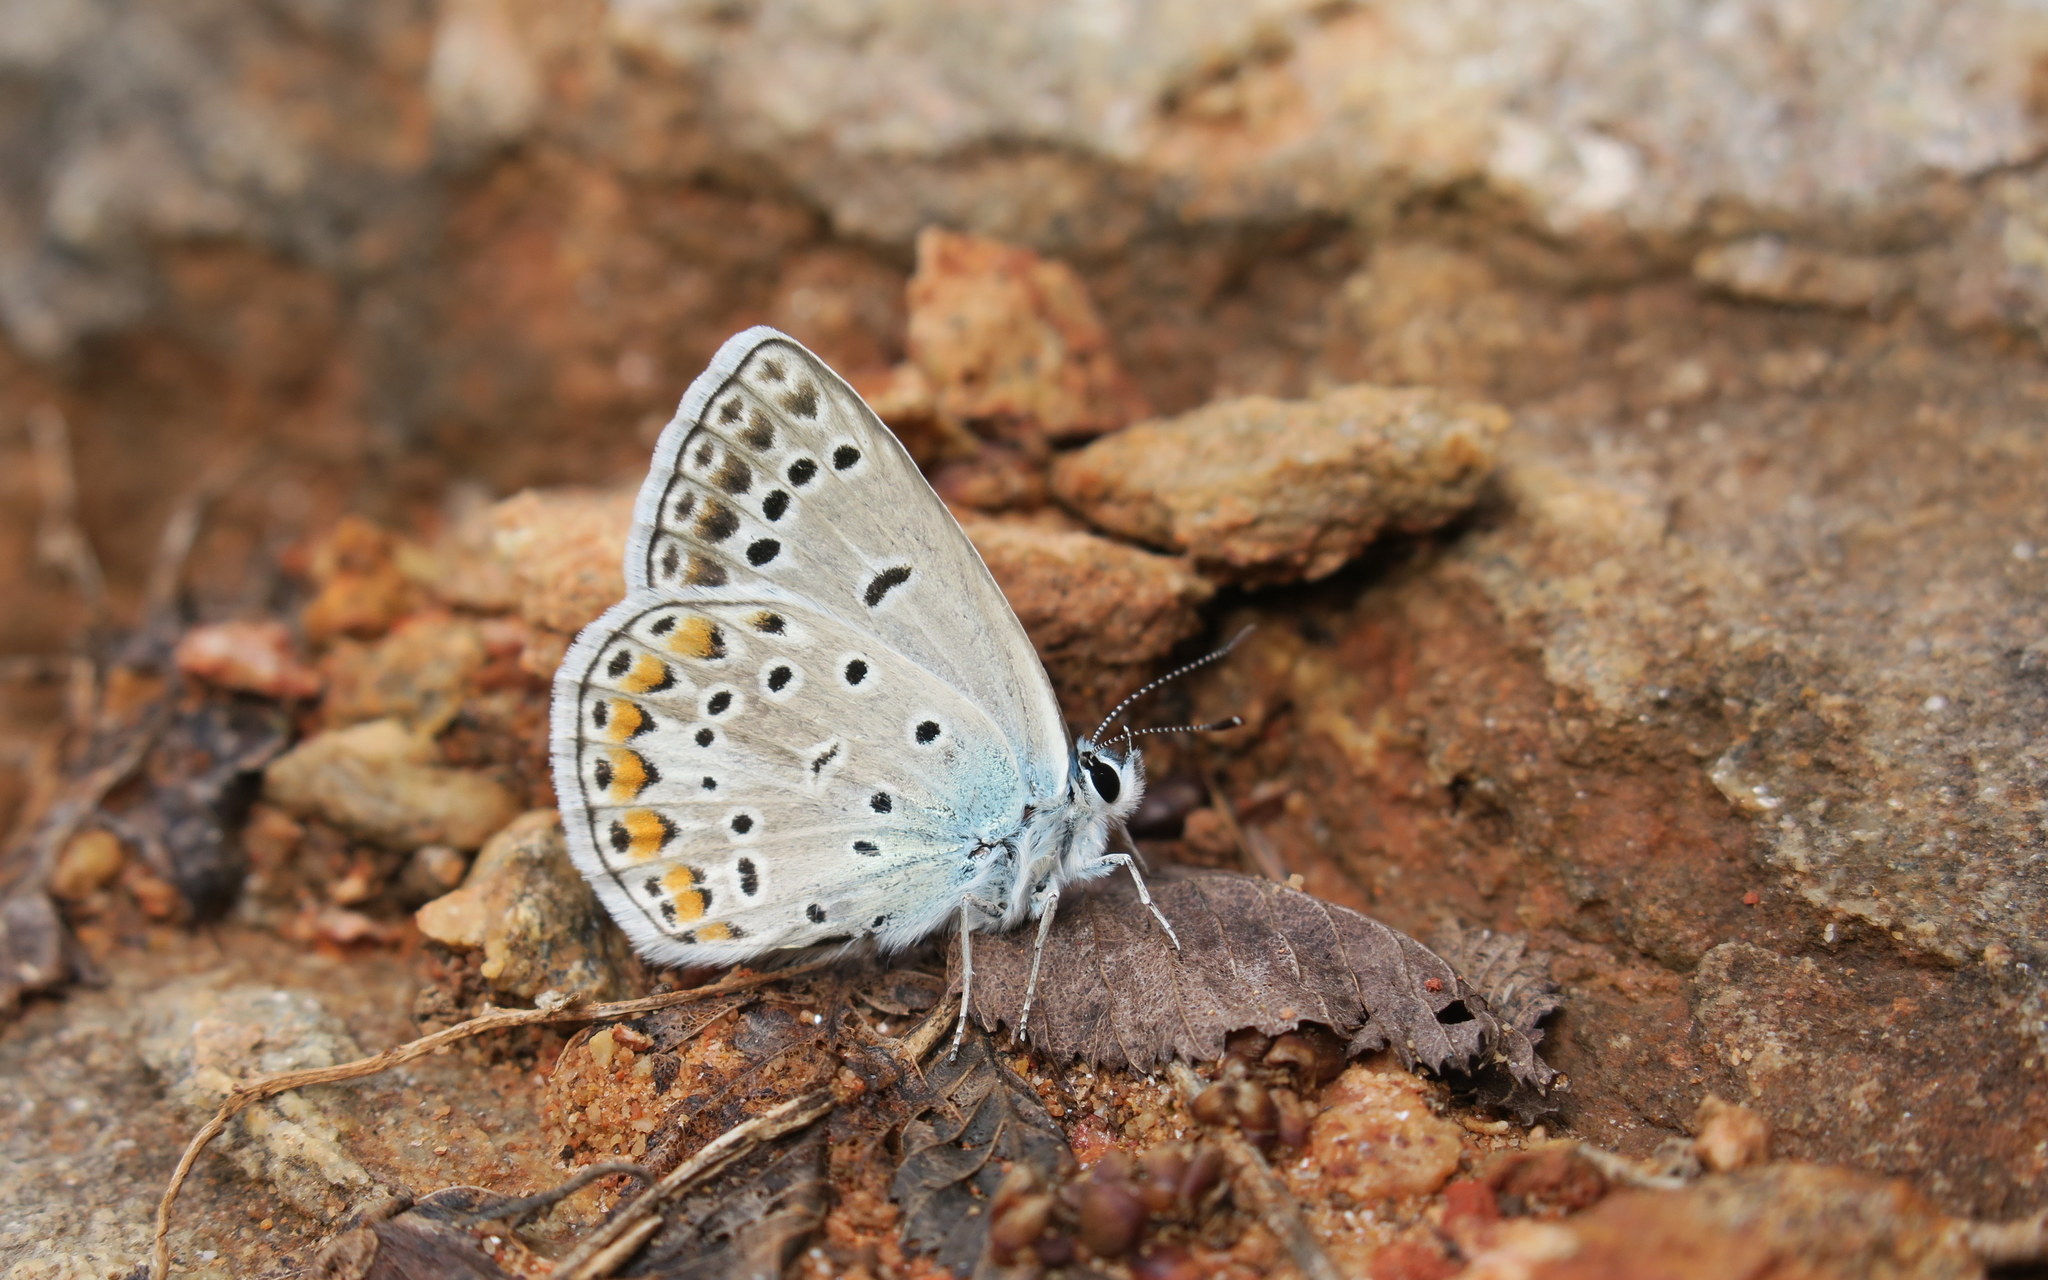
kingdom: Animalia
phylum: Arthropoda
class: Insecta
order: Lepidoptera
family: Lycaenidae
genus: Plebicula
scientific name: Plebicula escheri
